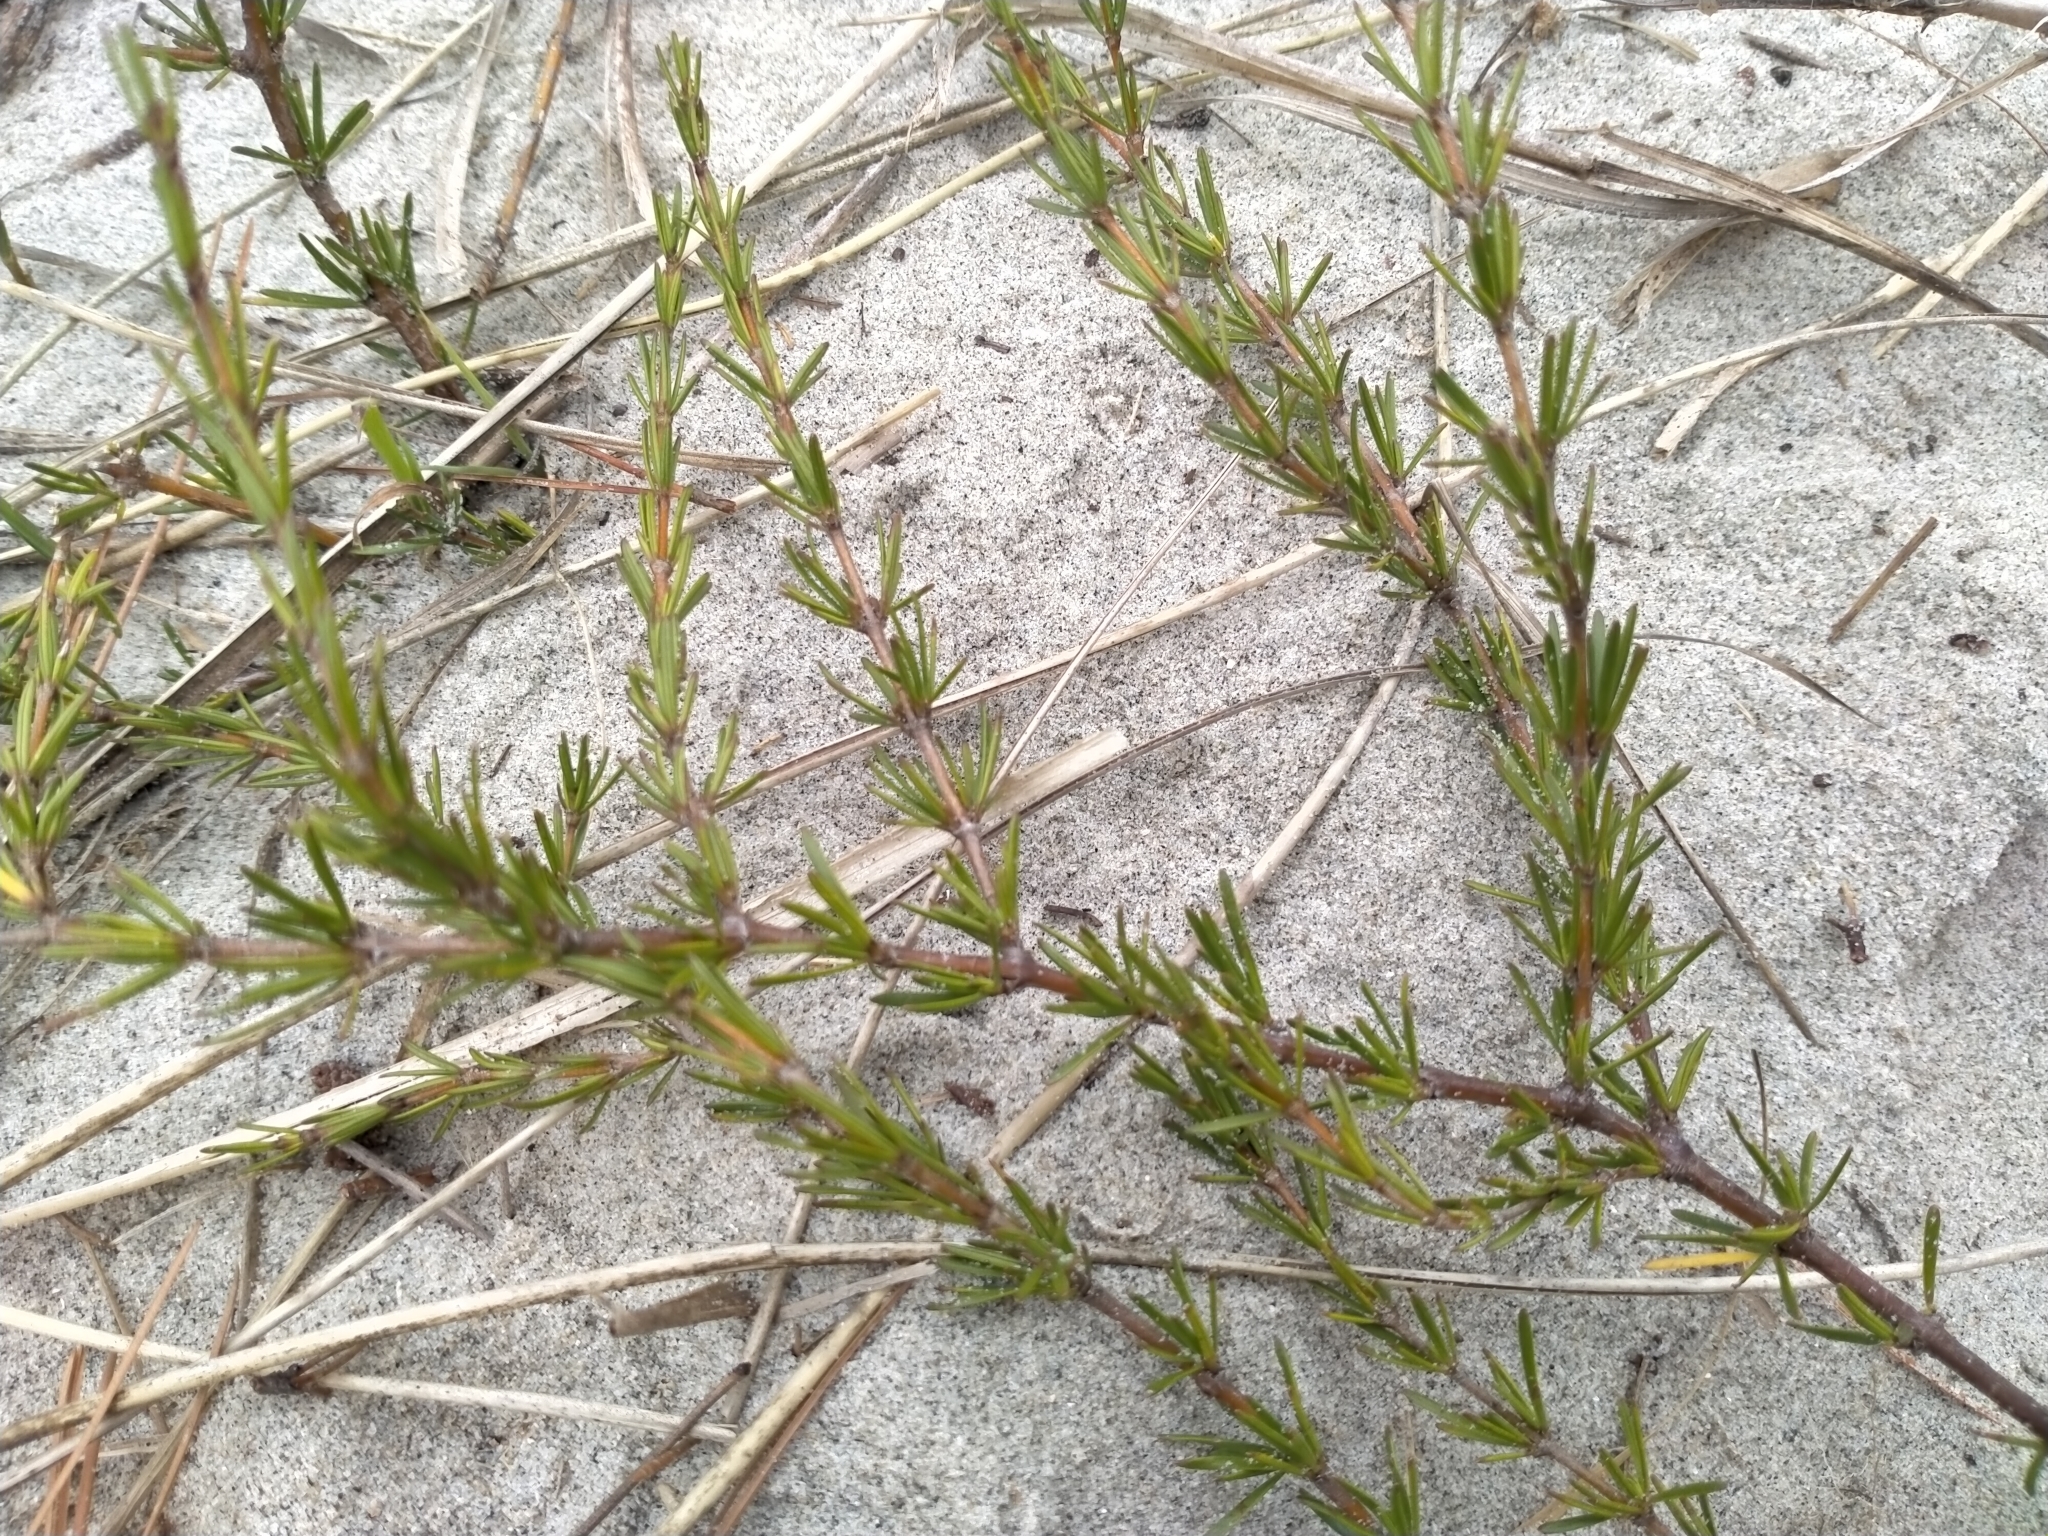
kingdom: Plantae
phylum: Tracheophyta
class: Magnoliopsida
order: Gentianales
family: Rubiaceae
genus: Coprosma
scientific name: Coprosma acerosa
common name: Sand coprosma
